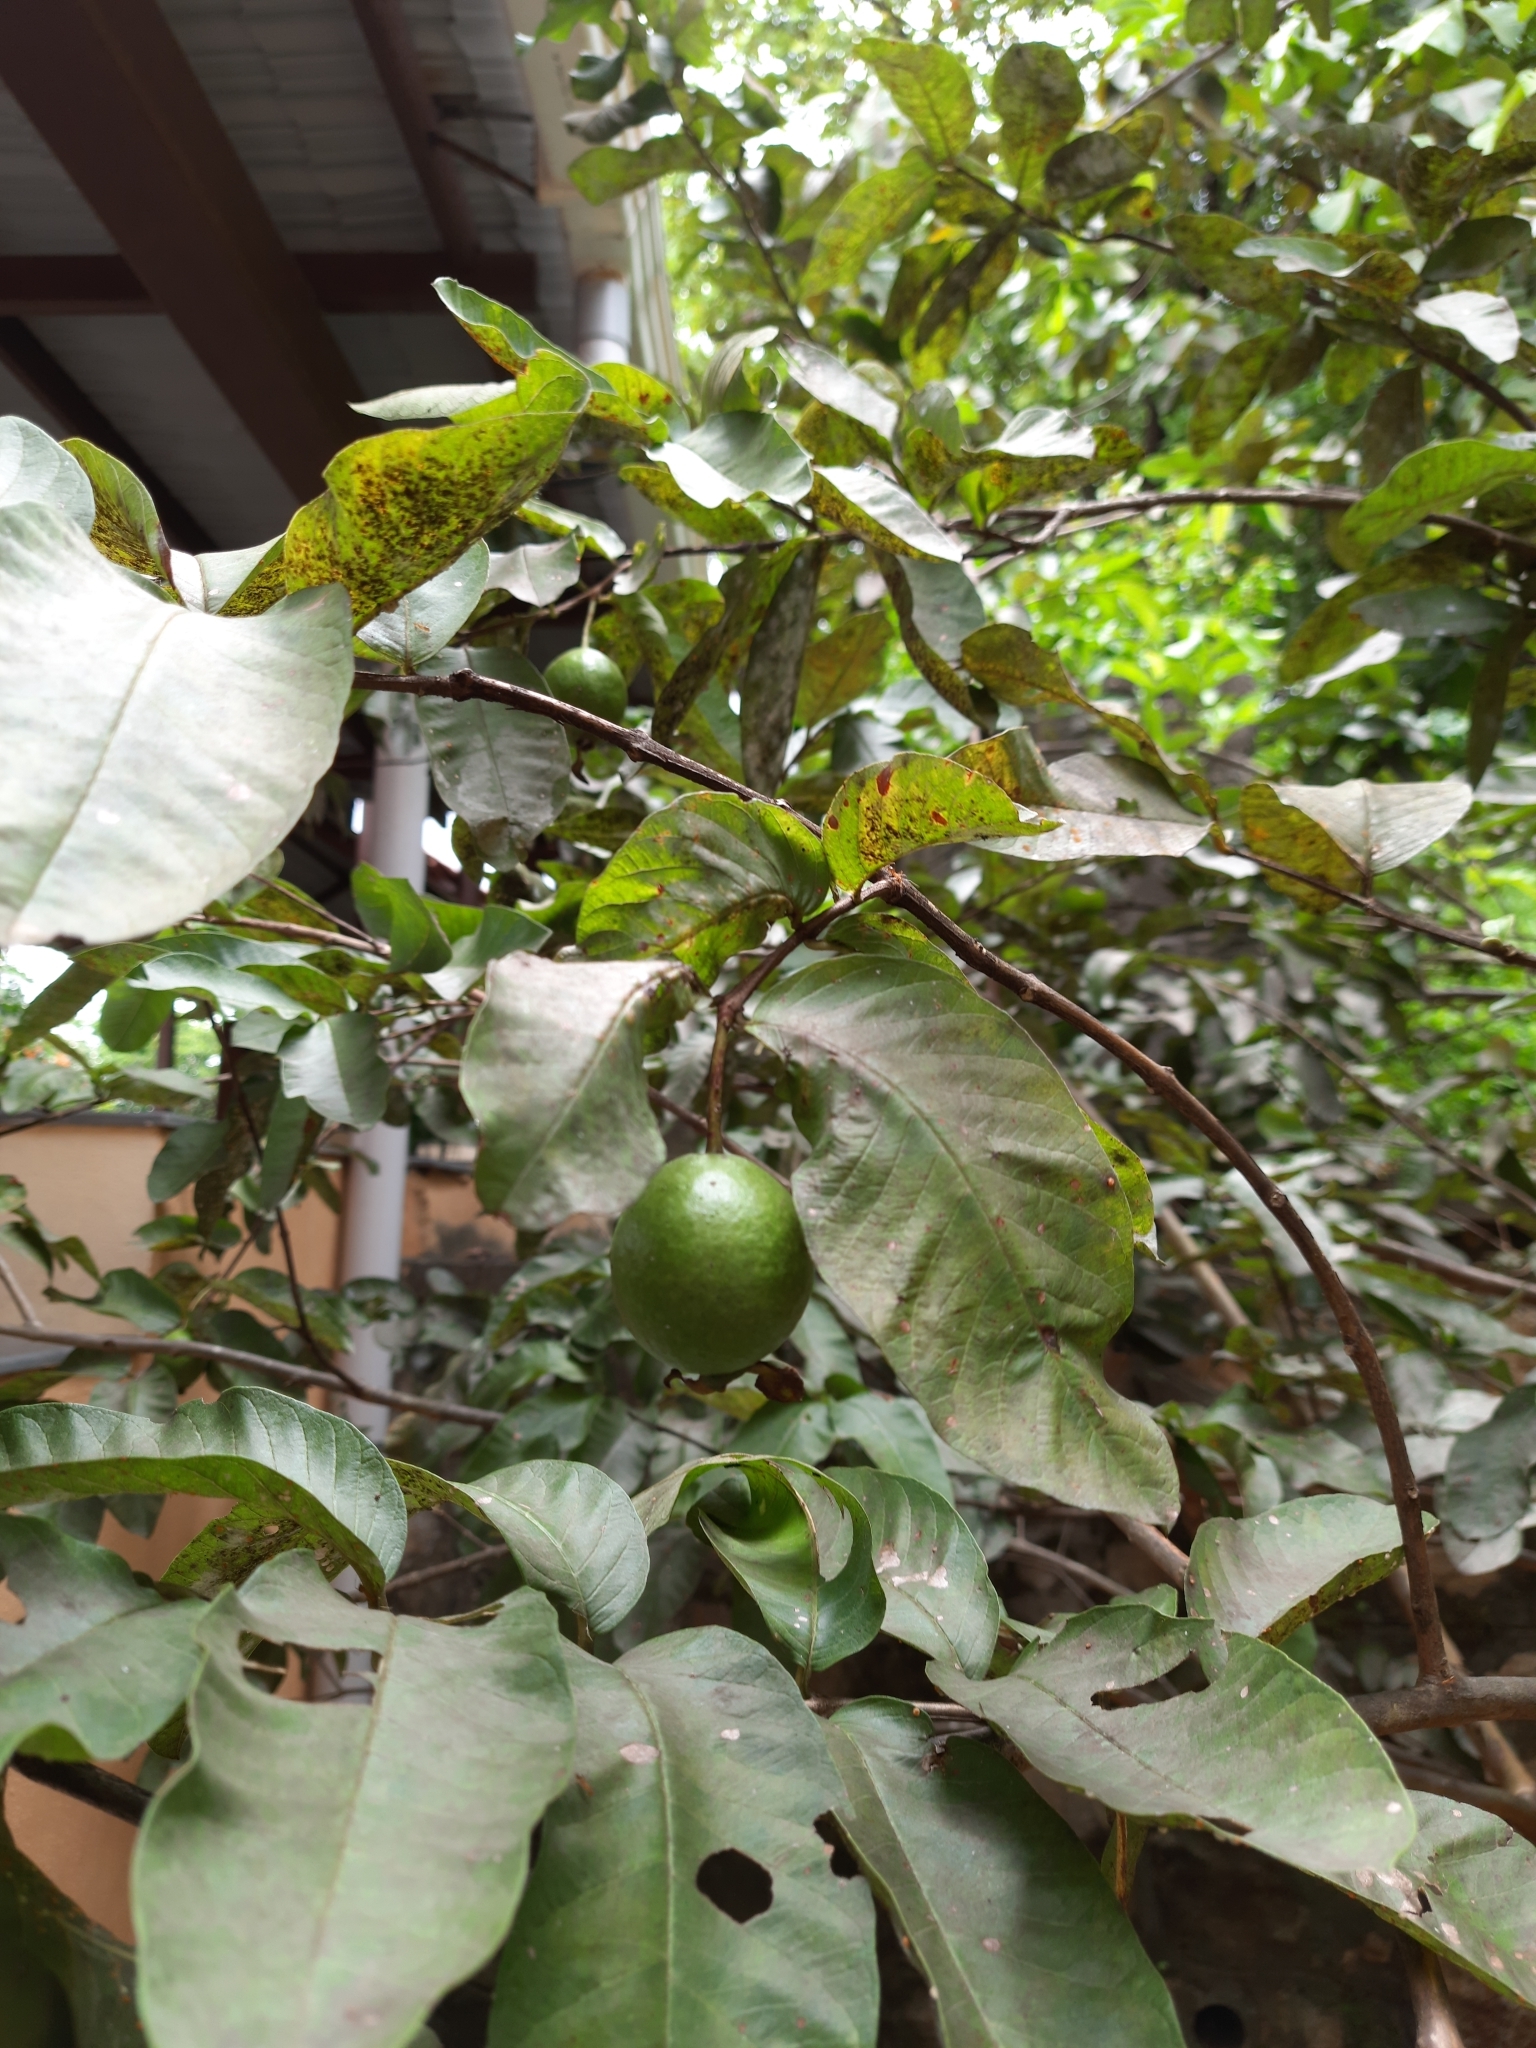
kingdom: Plantae
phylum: Tracheophyta
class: Magnoliopsida
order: Myrtales
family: Myrtaceae
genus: Psidium
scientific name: Psidium guajava
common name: Guava
